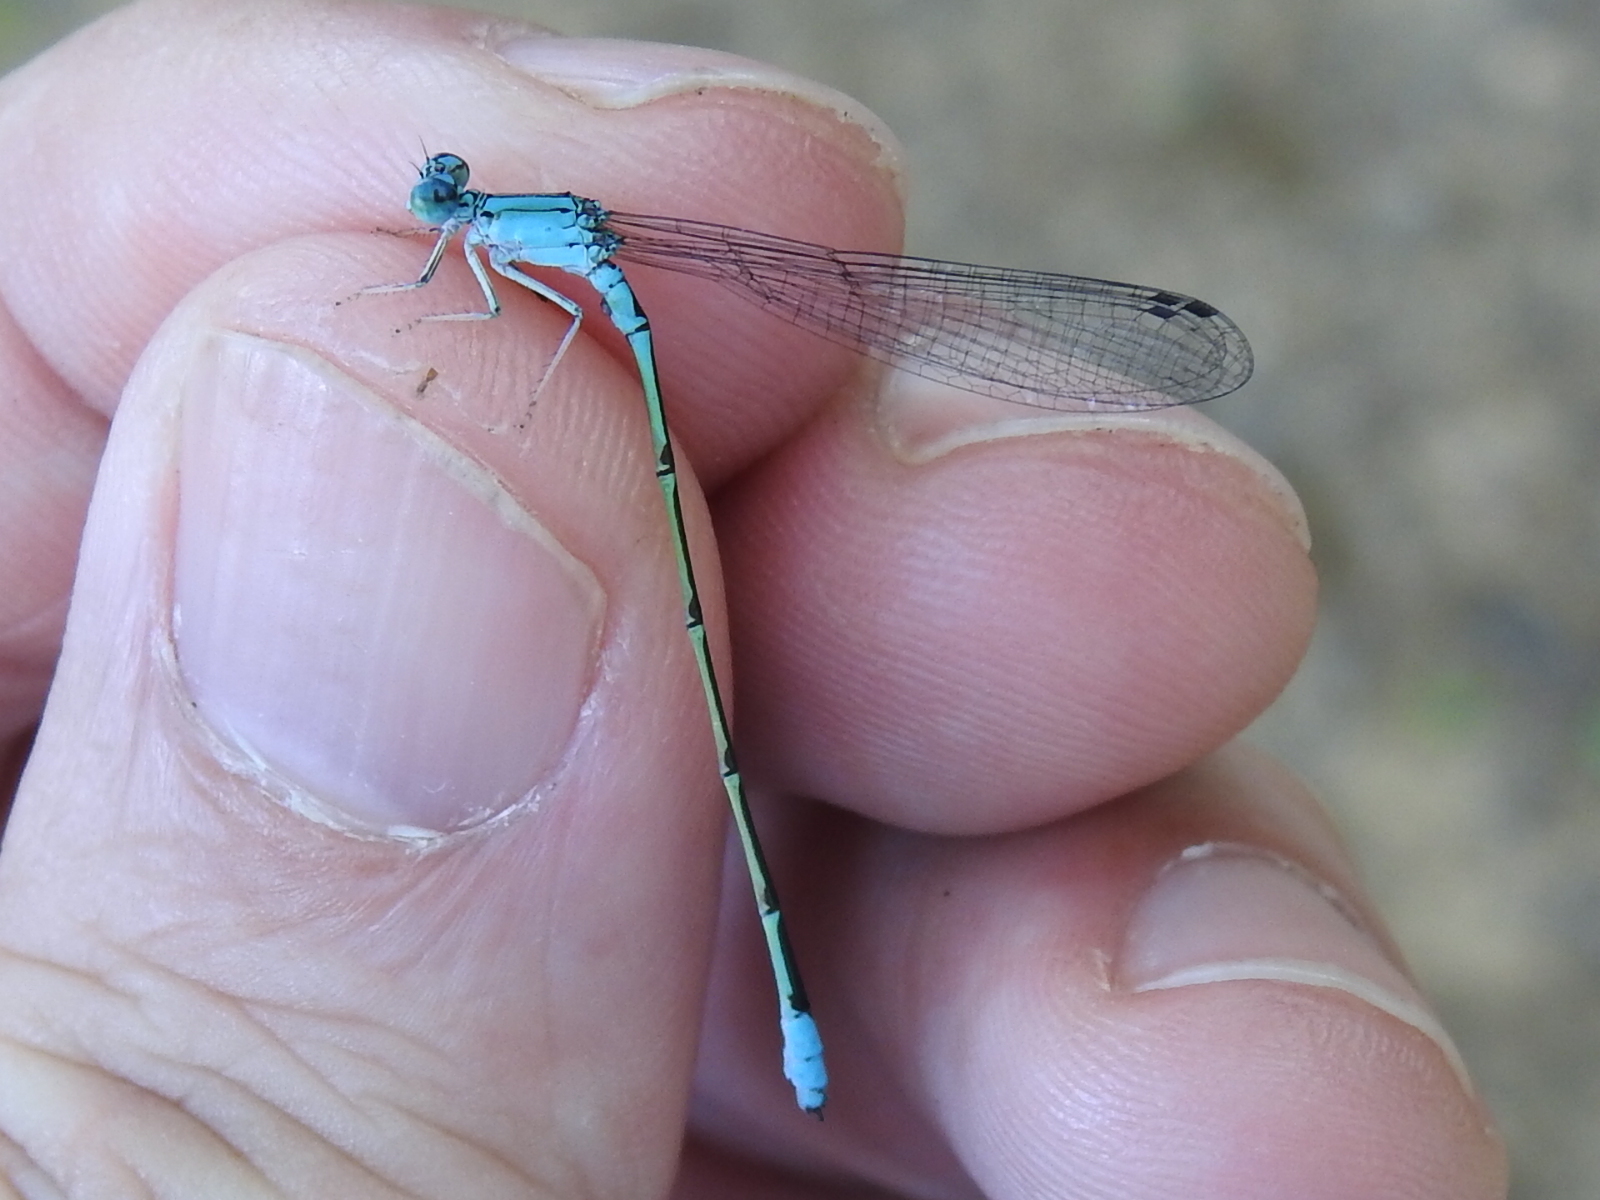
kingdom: Animalia
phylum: Arthropoda
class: Insecta
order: Odonata
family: Coenagrionidae
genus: Enallagma
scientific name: Enallagma traviatum
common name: Slender bluet
